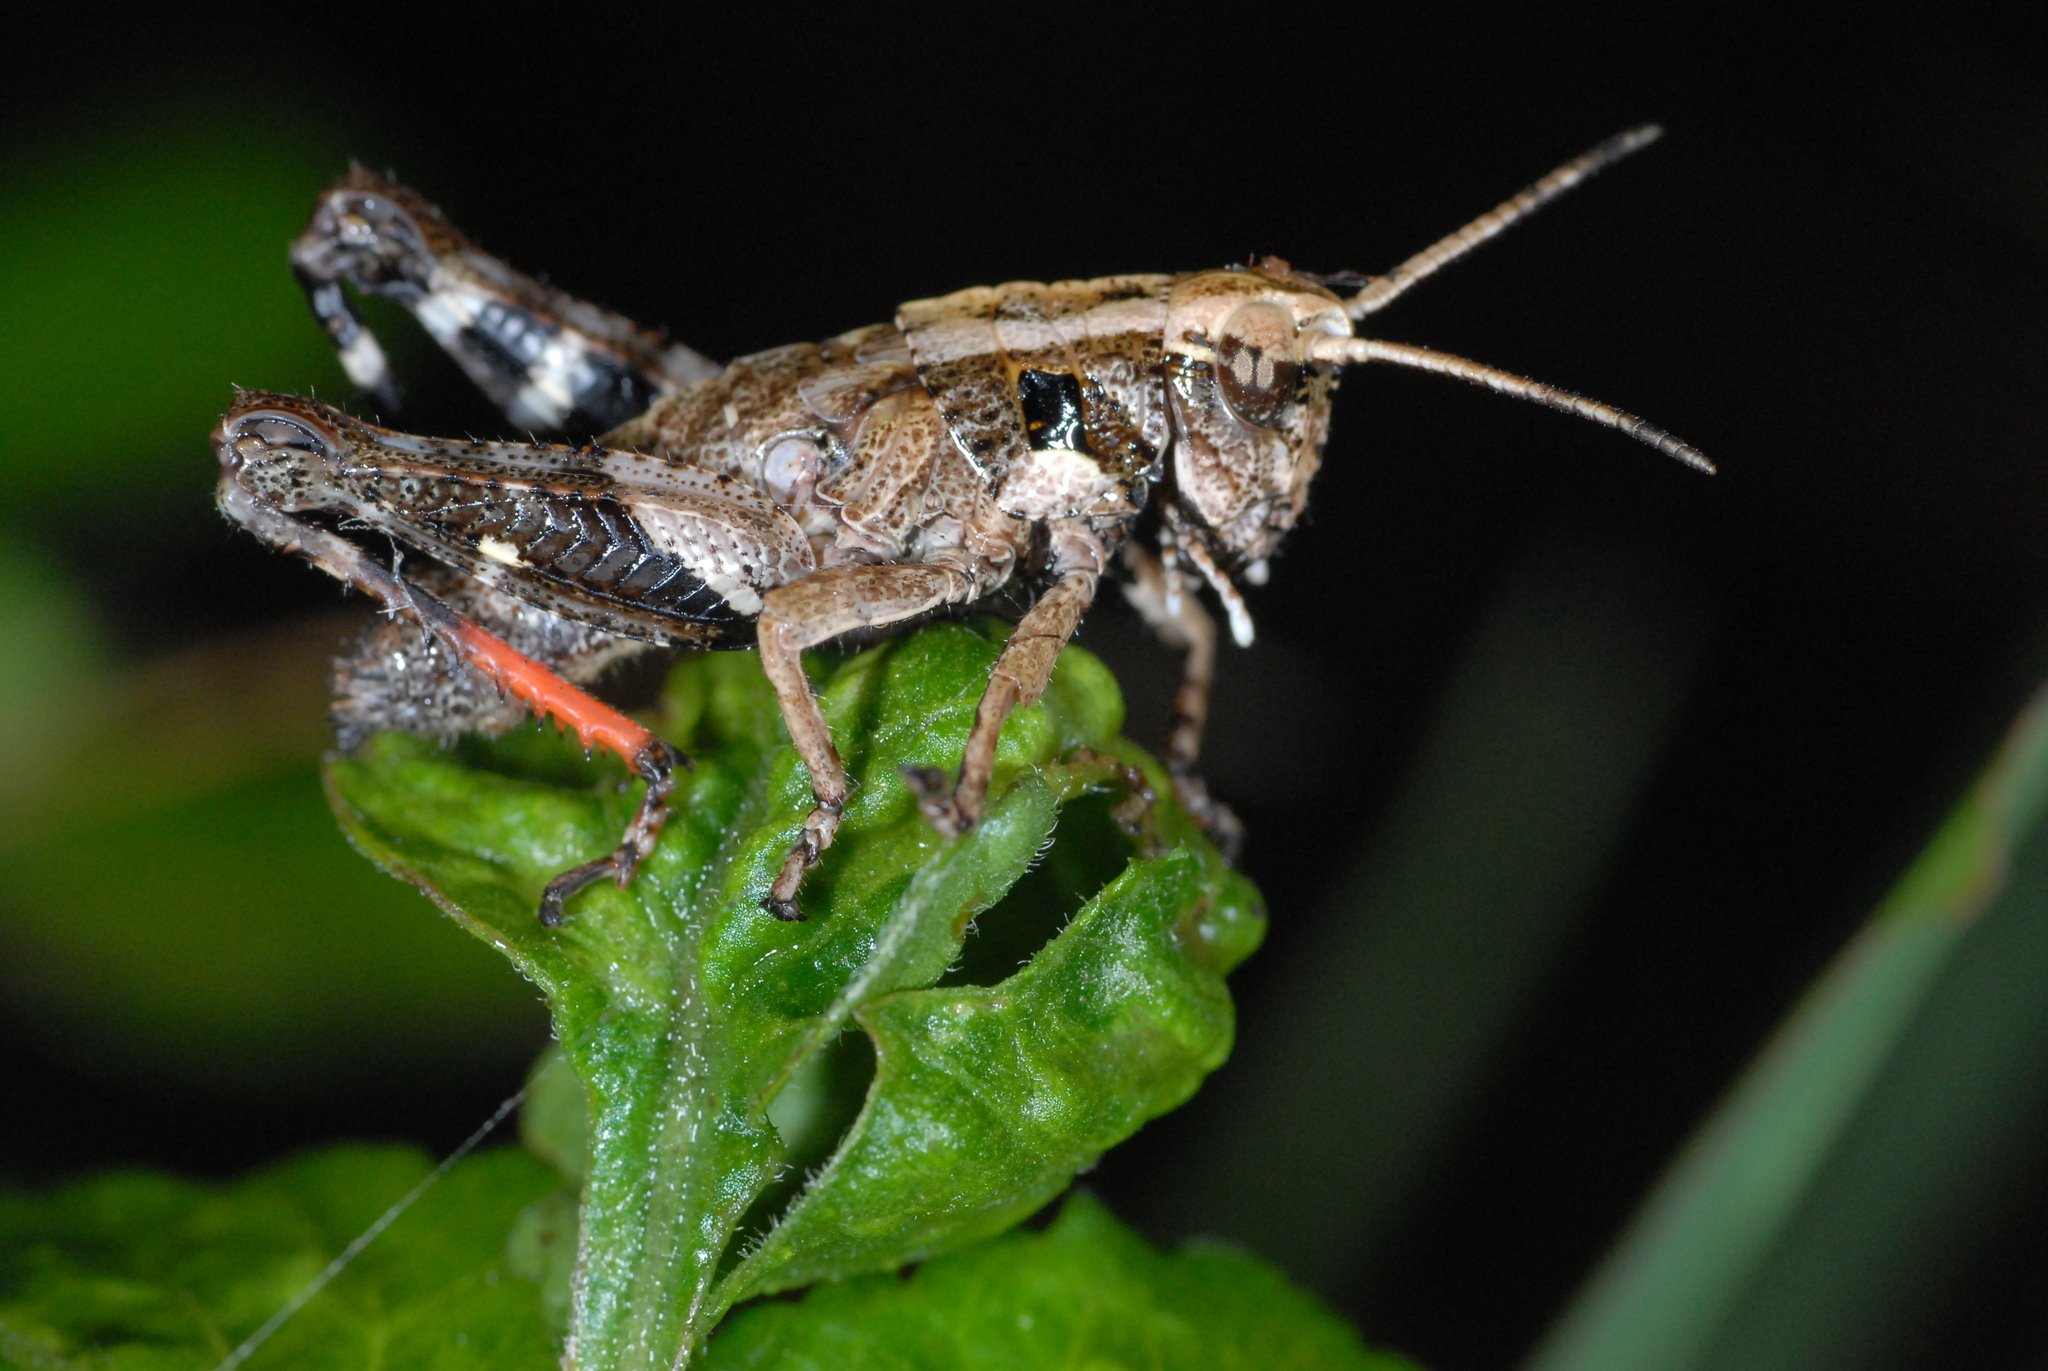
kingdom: Animalia
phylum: Arthropoda
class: Insecta
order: Orthoptera
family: Acrididae
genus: Traulia
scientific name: Traulia ornata
